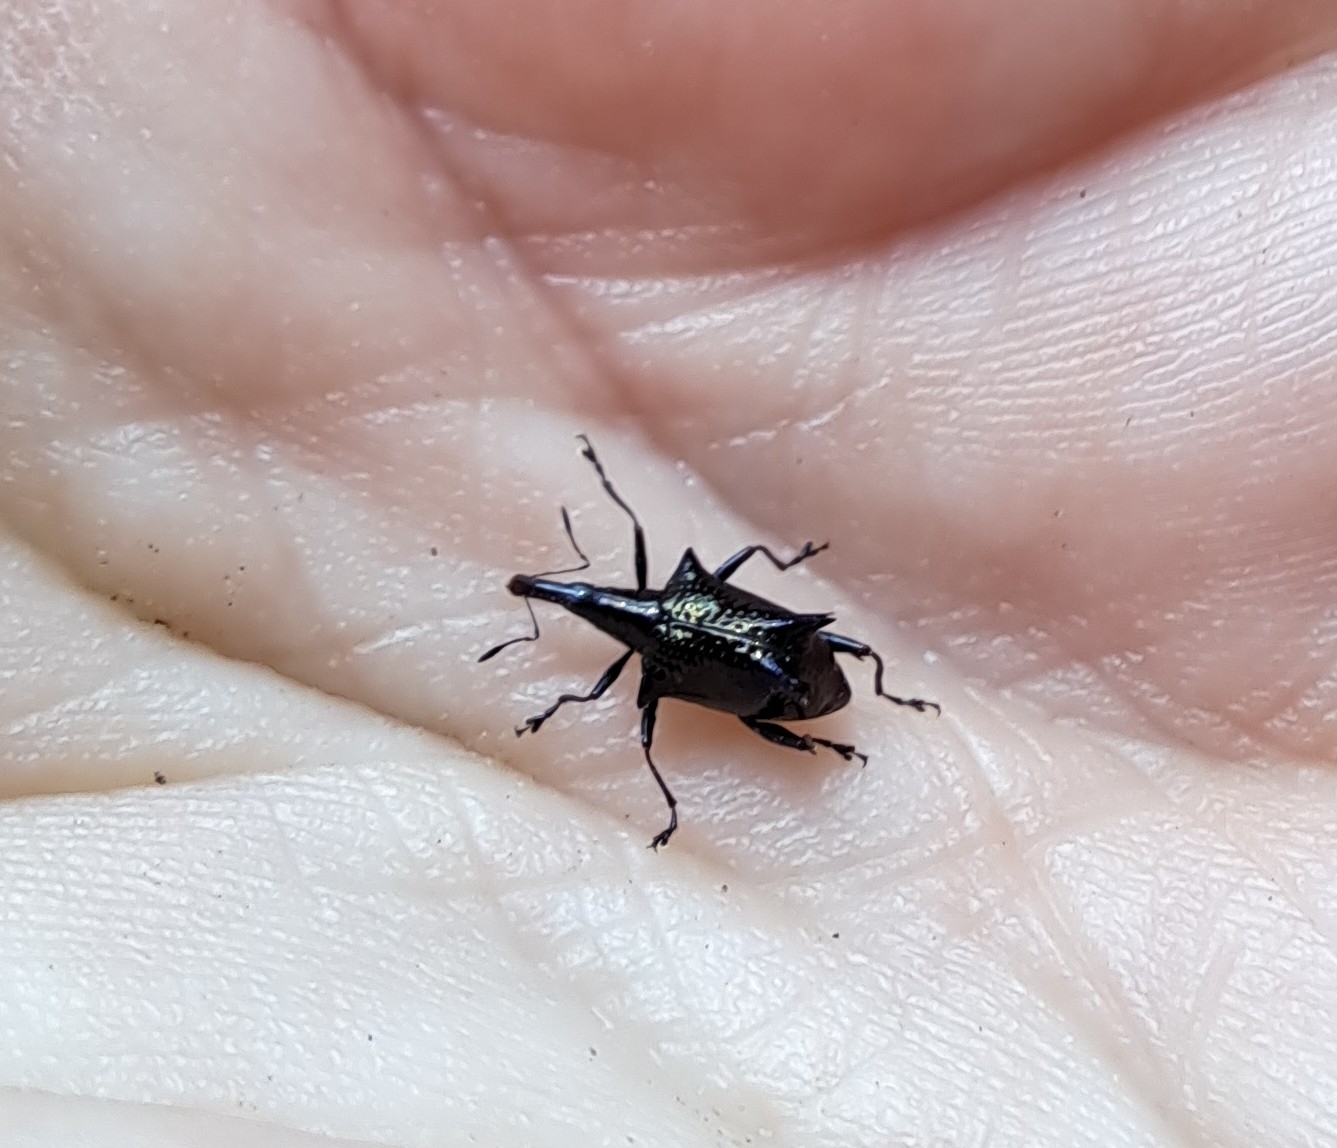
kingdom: Animalia
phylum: Arthropoda
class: Insecta
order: Coleoptera
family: Curculionidae
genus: Scolopterus
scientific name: Scolopterus tetracanthus
